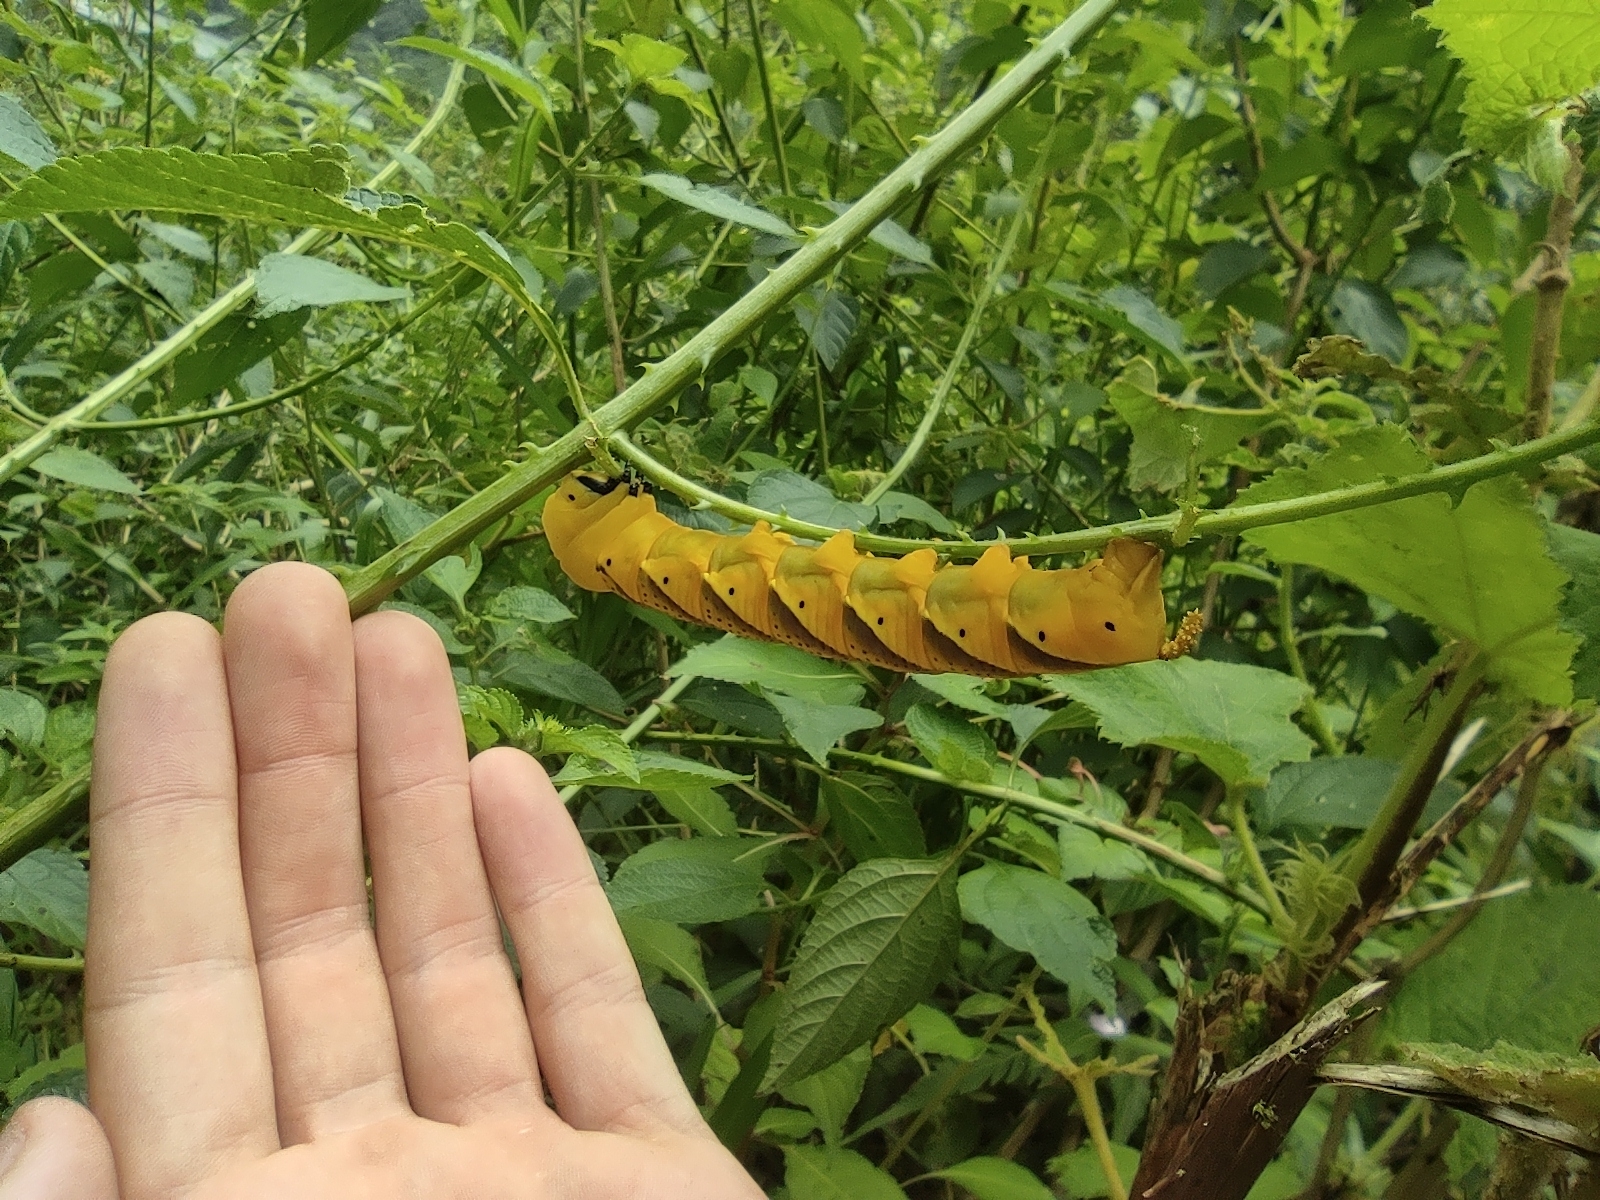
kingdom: Animalia
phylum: Arthropoda
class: Insecta
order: Lepidoptera
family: Sphingidae
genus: Acherontia
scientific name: Acherontia atropos
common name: Death's-head hawk moth
